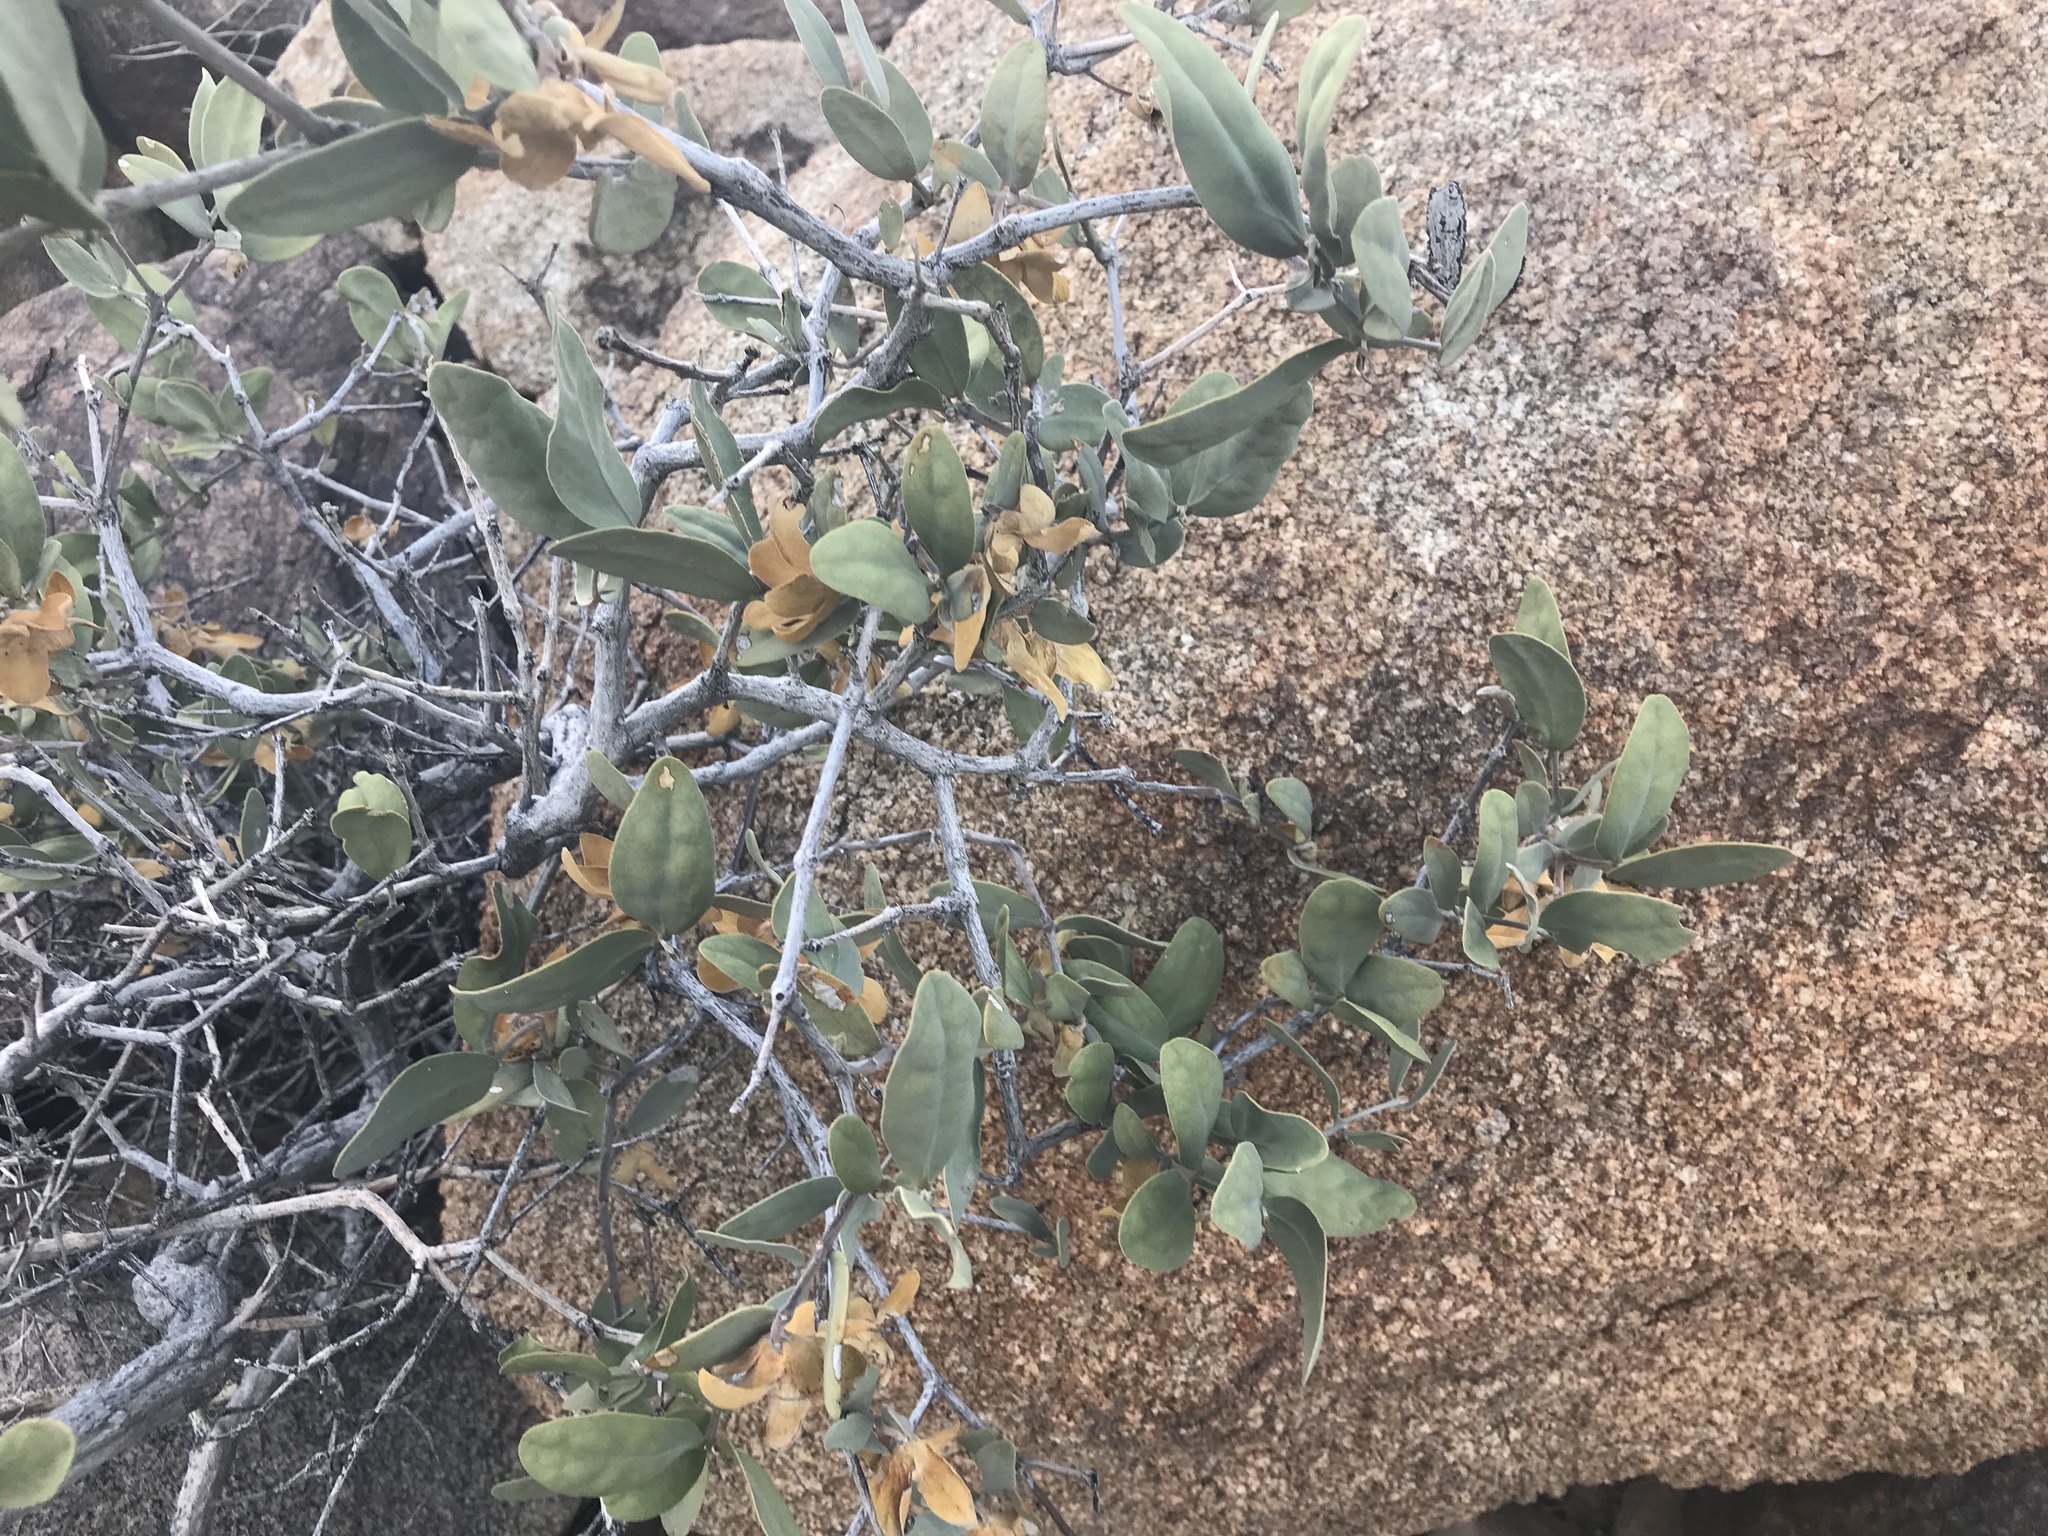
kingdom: Plantae
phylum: Tracheophyta
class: Magnoliopsida
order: Caryophyllales
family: Simmondsiaceae
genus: Simmondsia
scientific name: Simmondsia chinensis
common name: Jojoba
